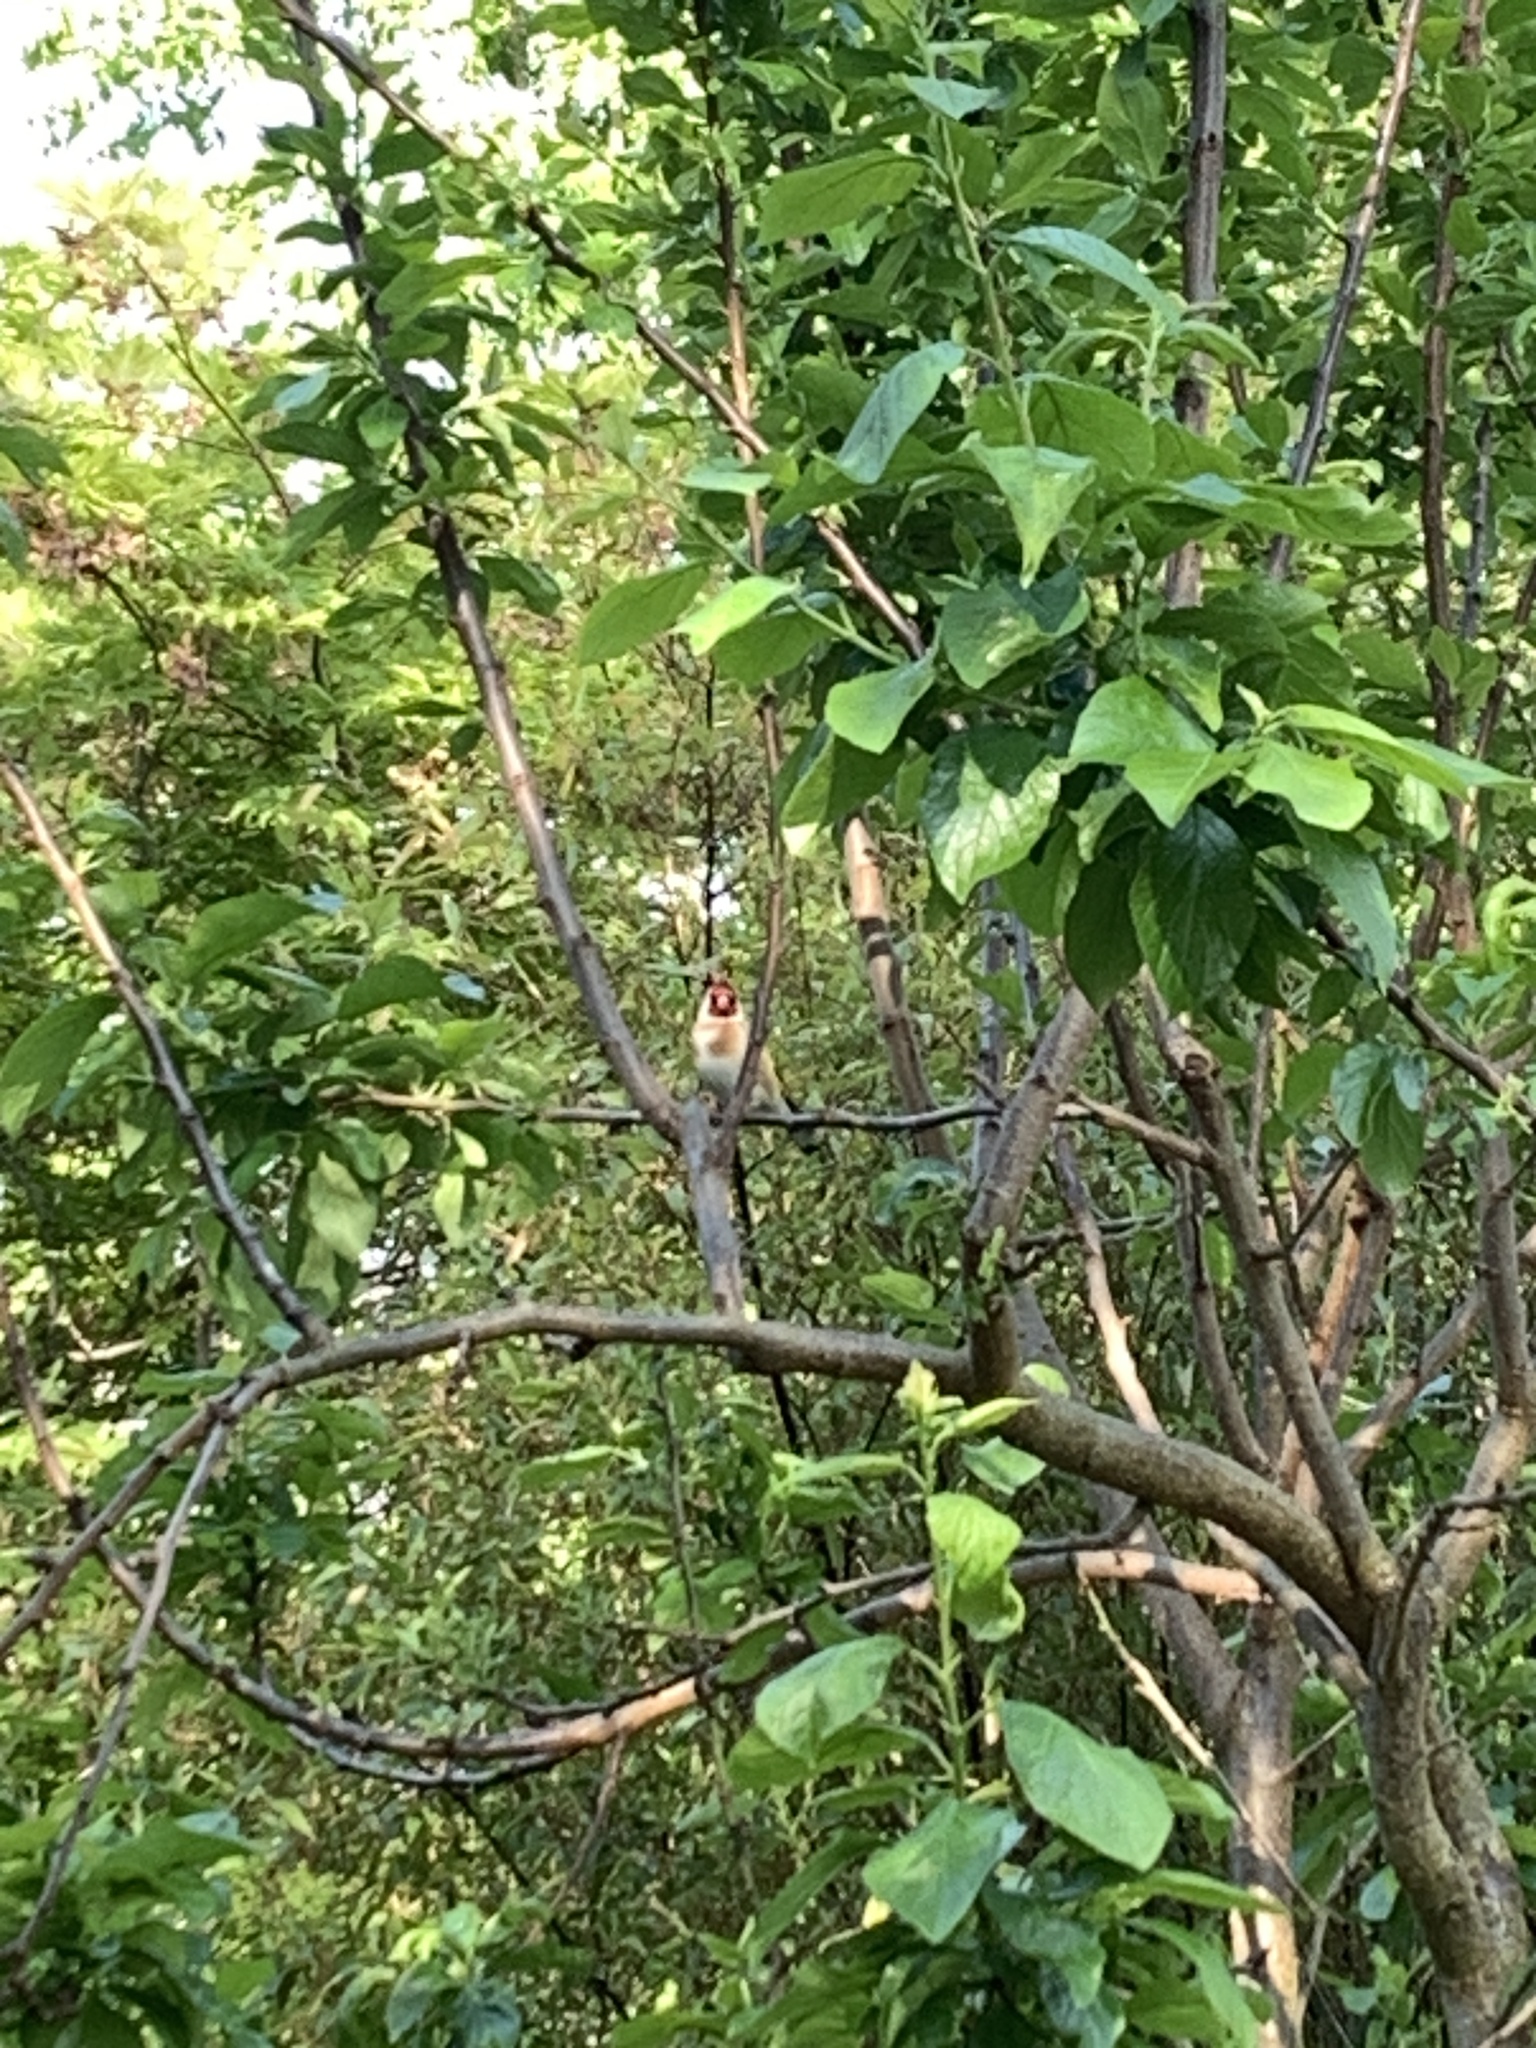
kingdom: Animalia
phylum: Chordata
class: Aves
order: Passeriformes
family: Fringillidae
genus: Carduelis
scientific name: Carduelis carduelis
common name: European goldfinch
